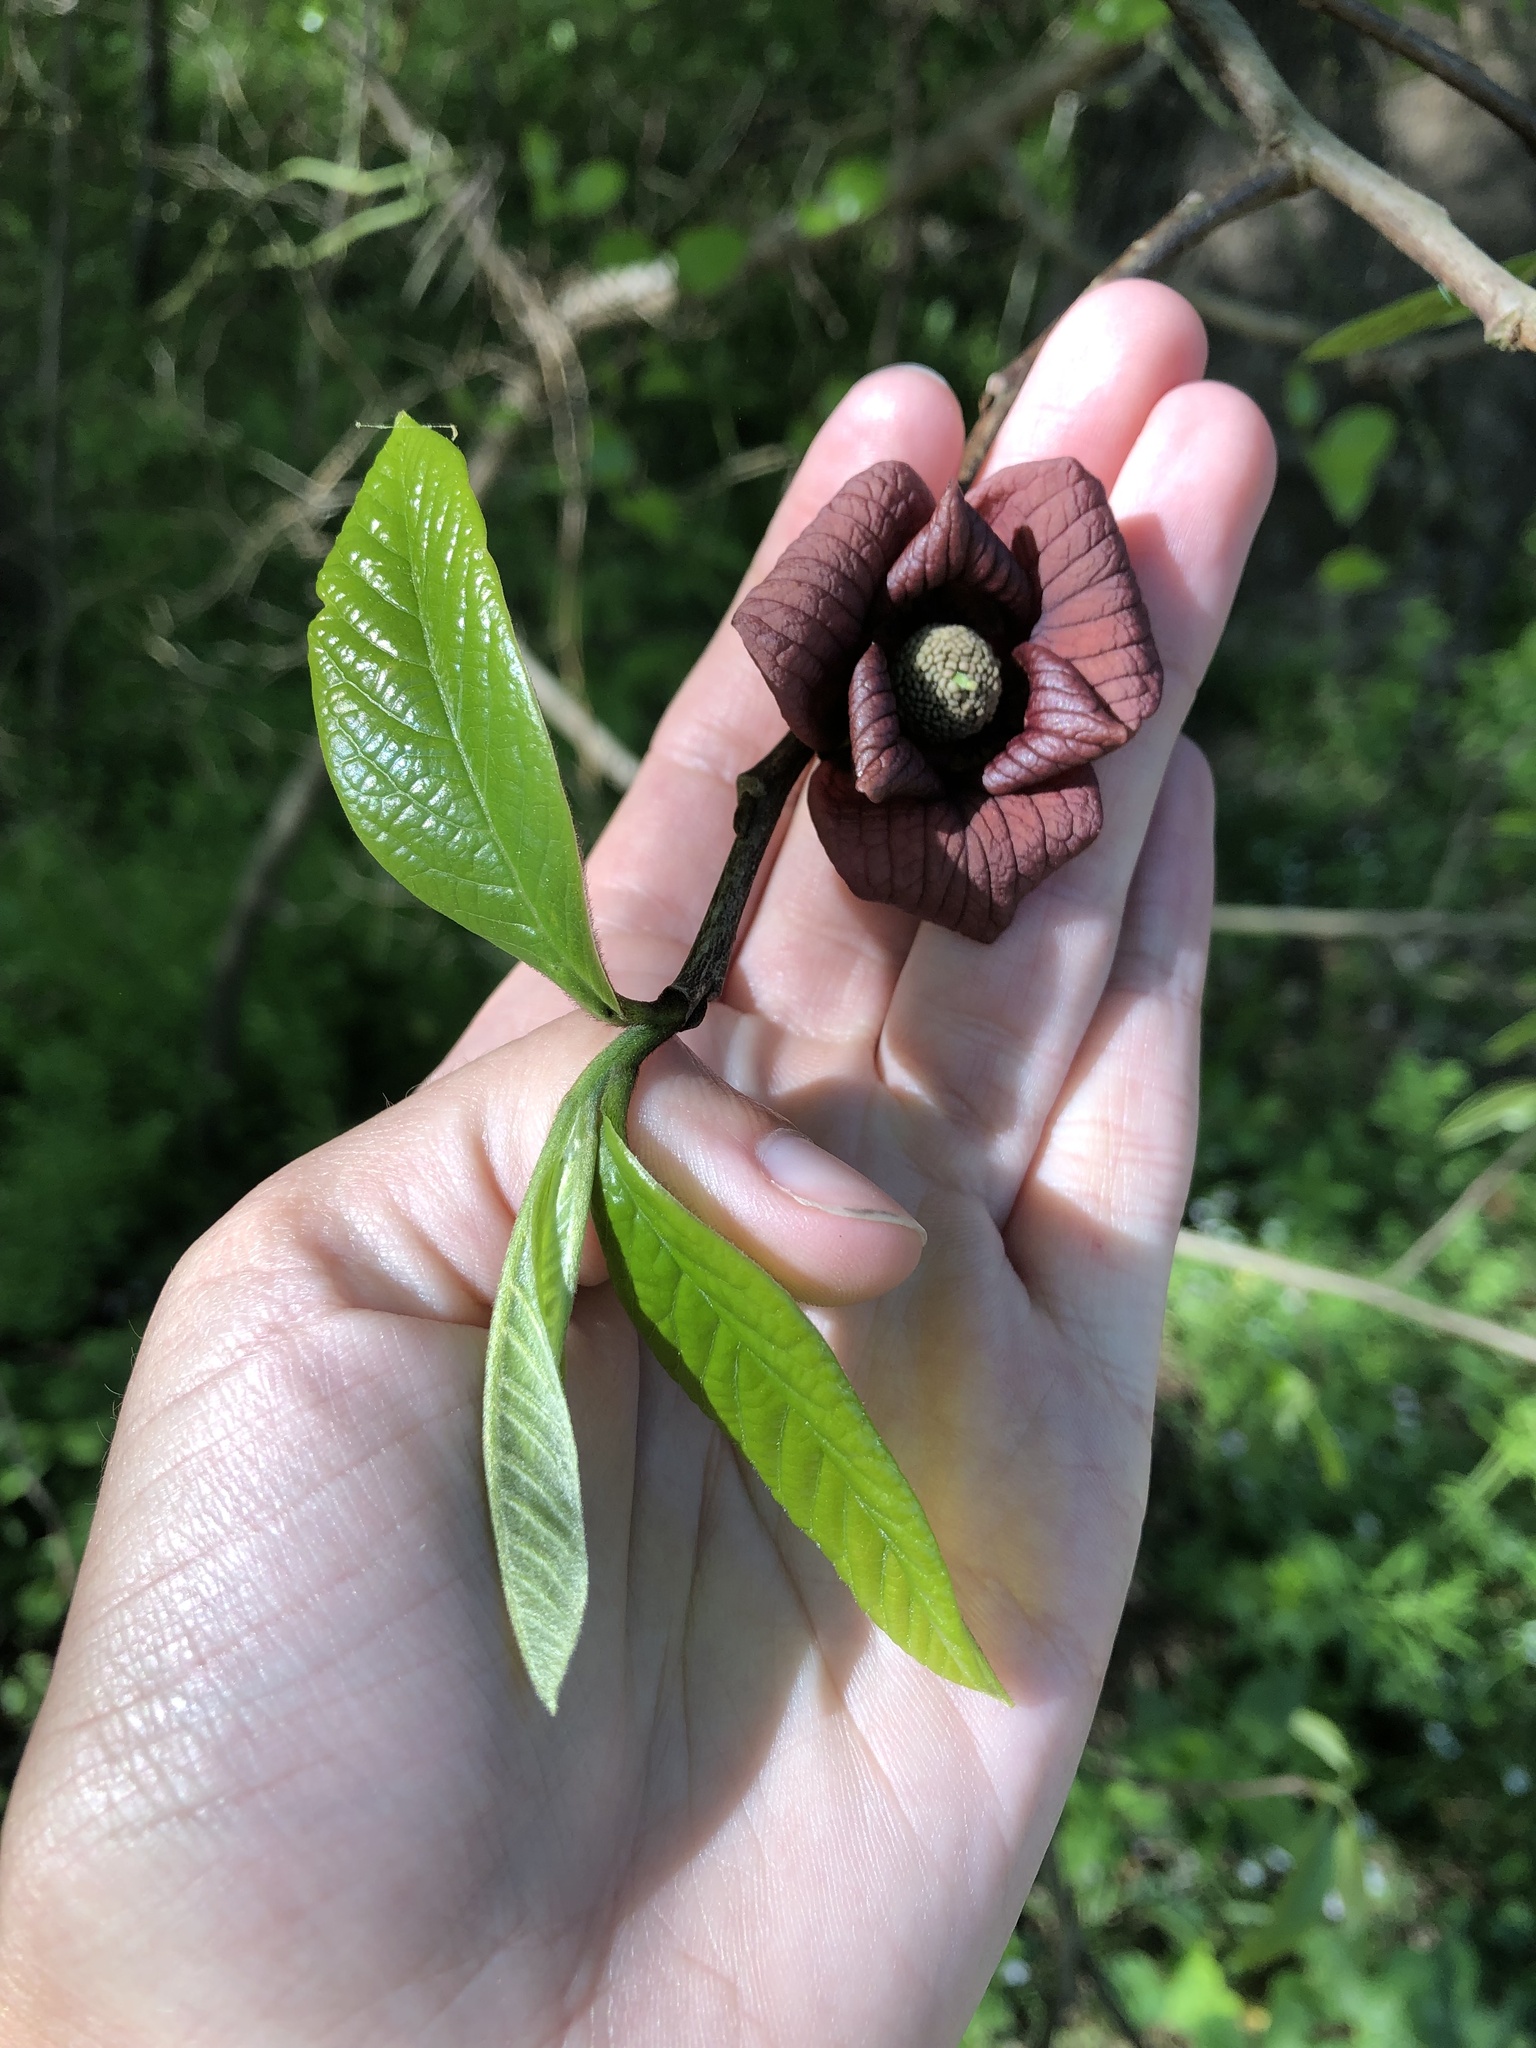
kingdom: Plantae
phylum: Tracheophyta
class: Magnoliopsida
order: Magnoliales
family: Annonaceae
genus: Asimina
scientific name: Asimina triloba
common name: Dog-banana
